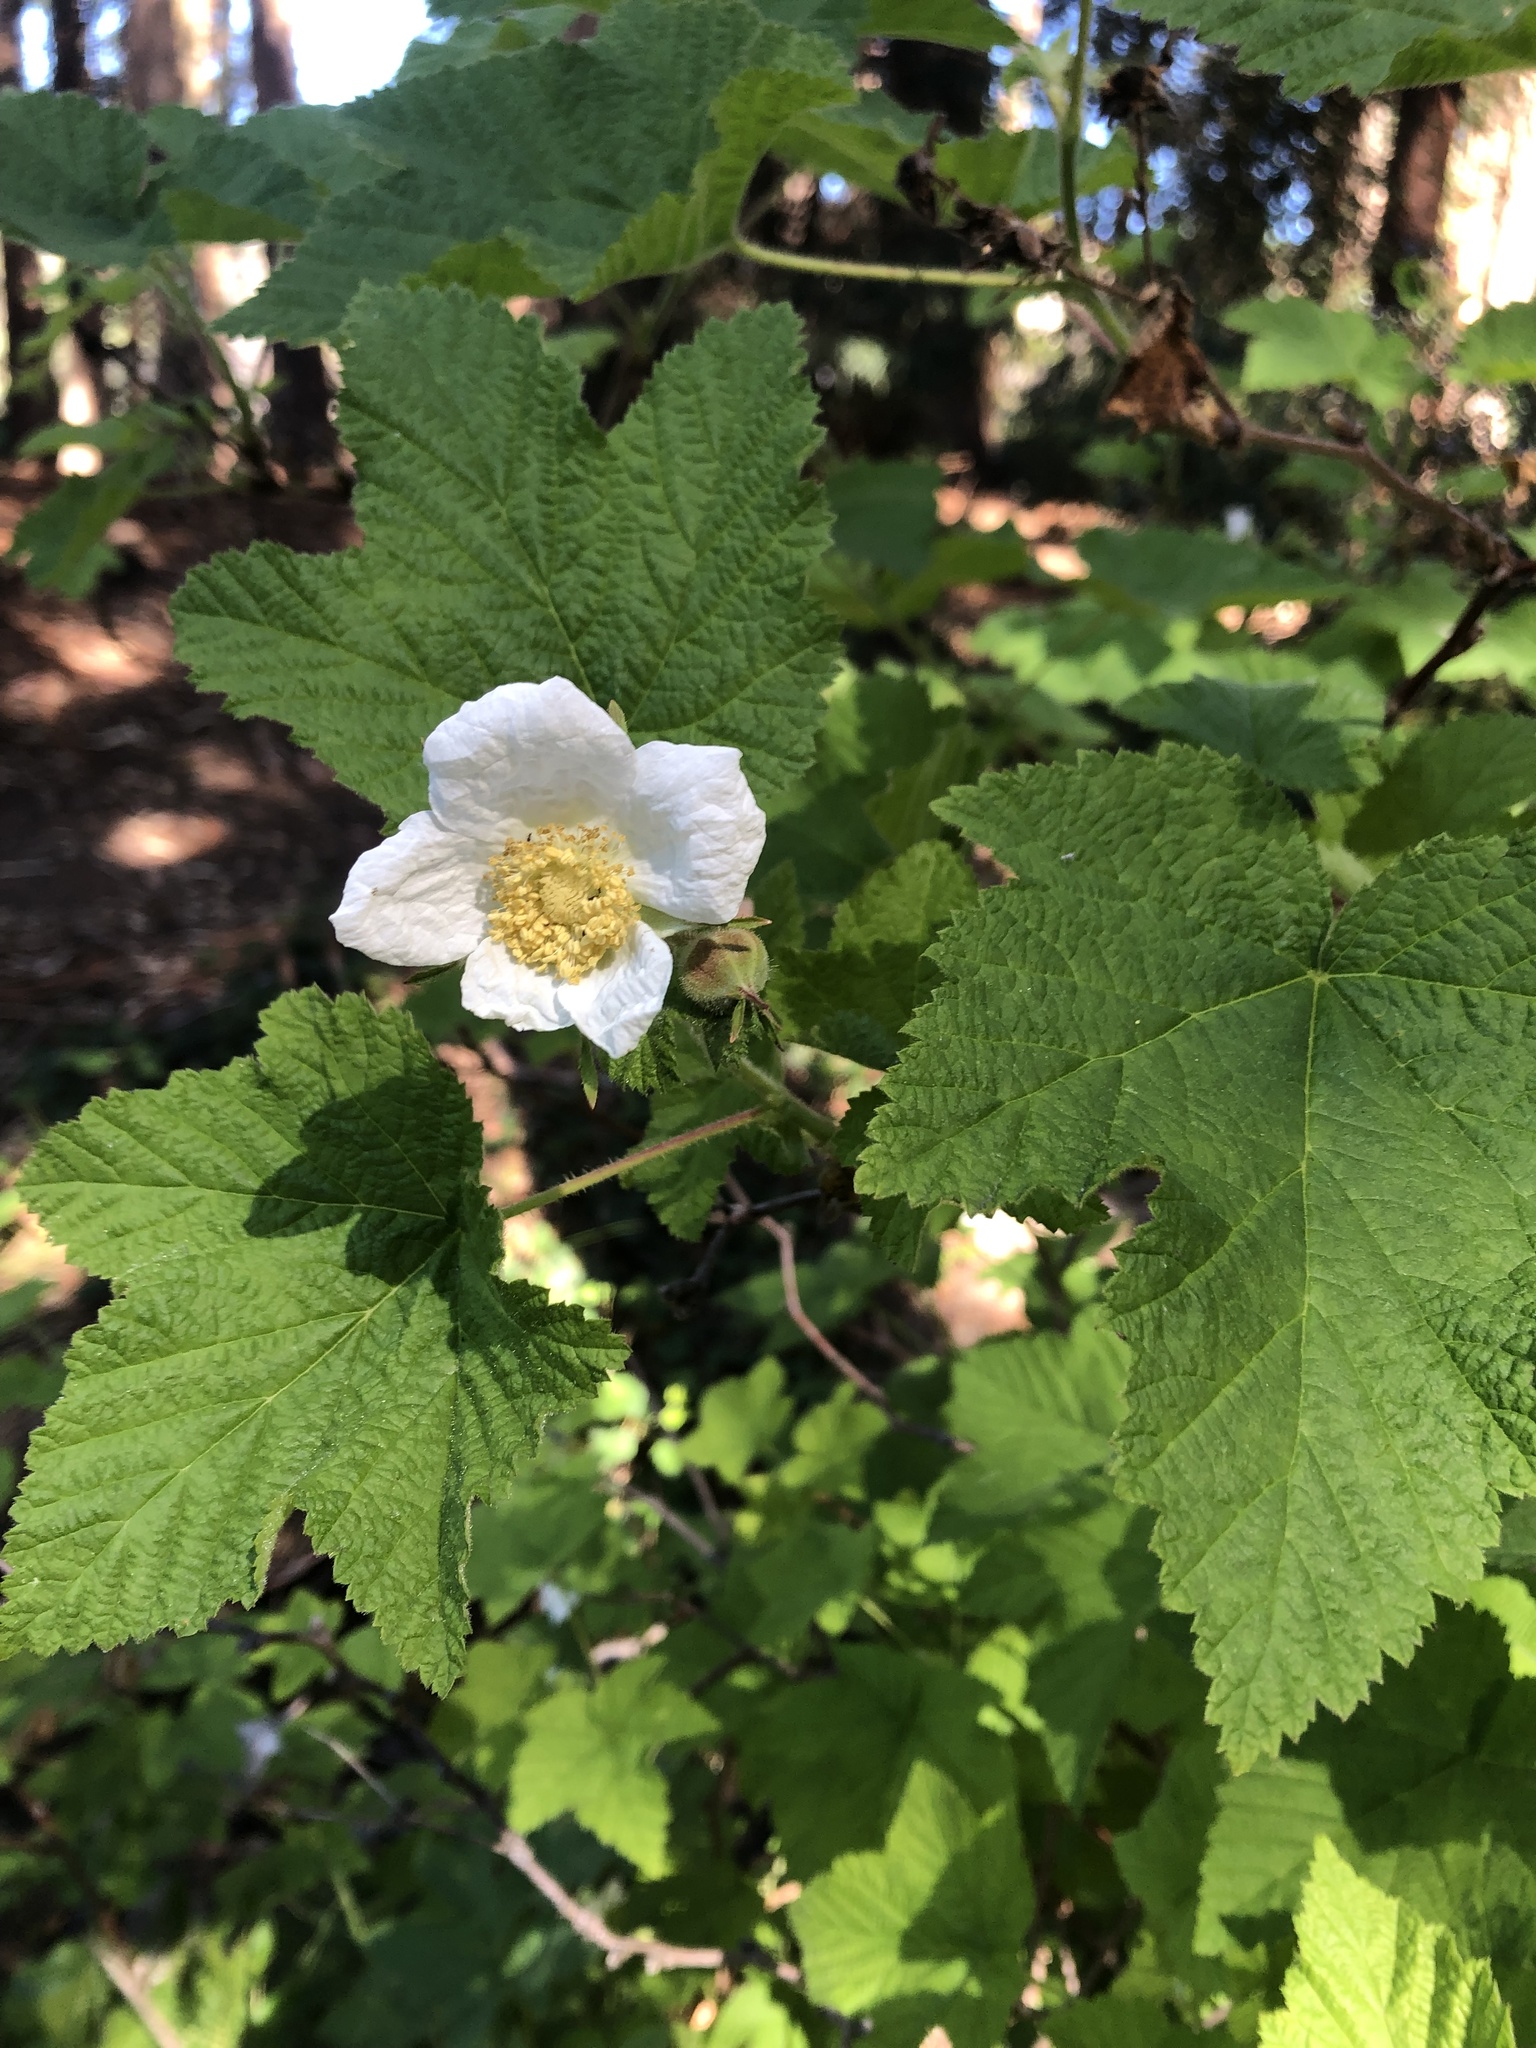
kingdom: Plantae
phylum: Tracheophyta
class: Magnoliopsida
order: Rosales
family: Rosaceae
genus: Rubus
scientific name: Rubus parviflorus
